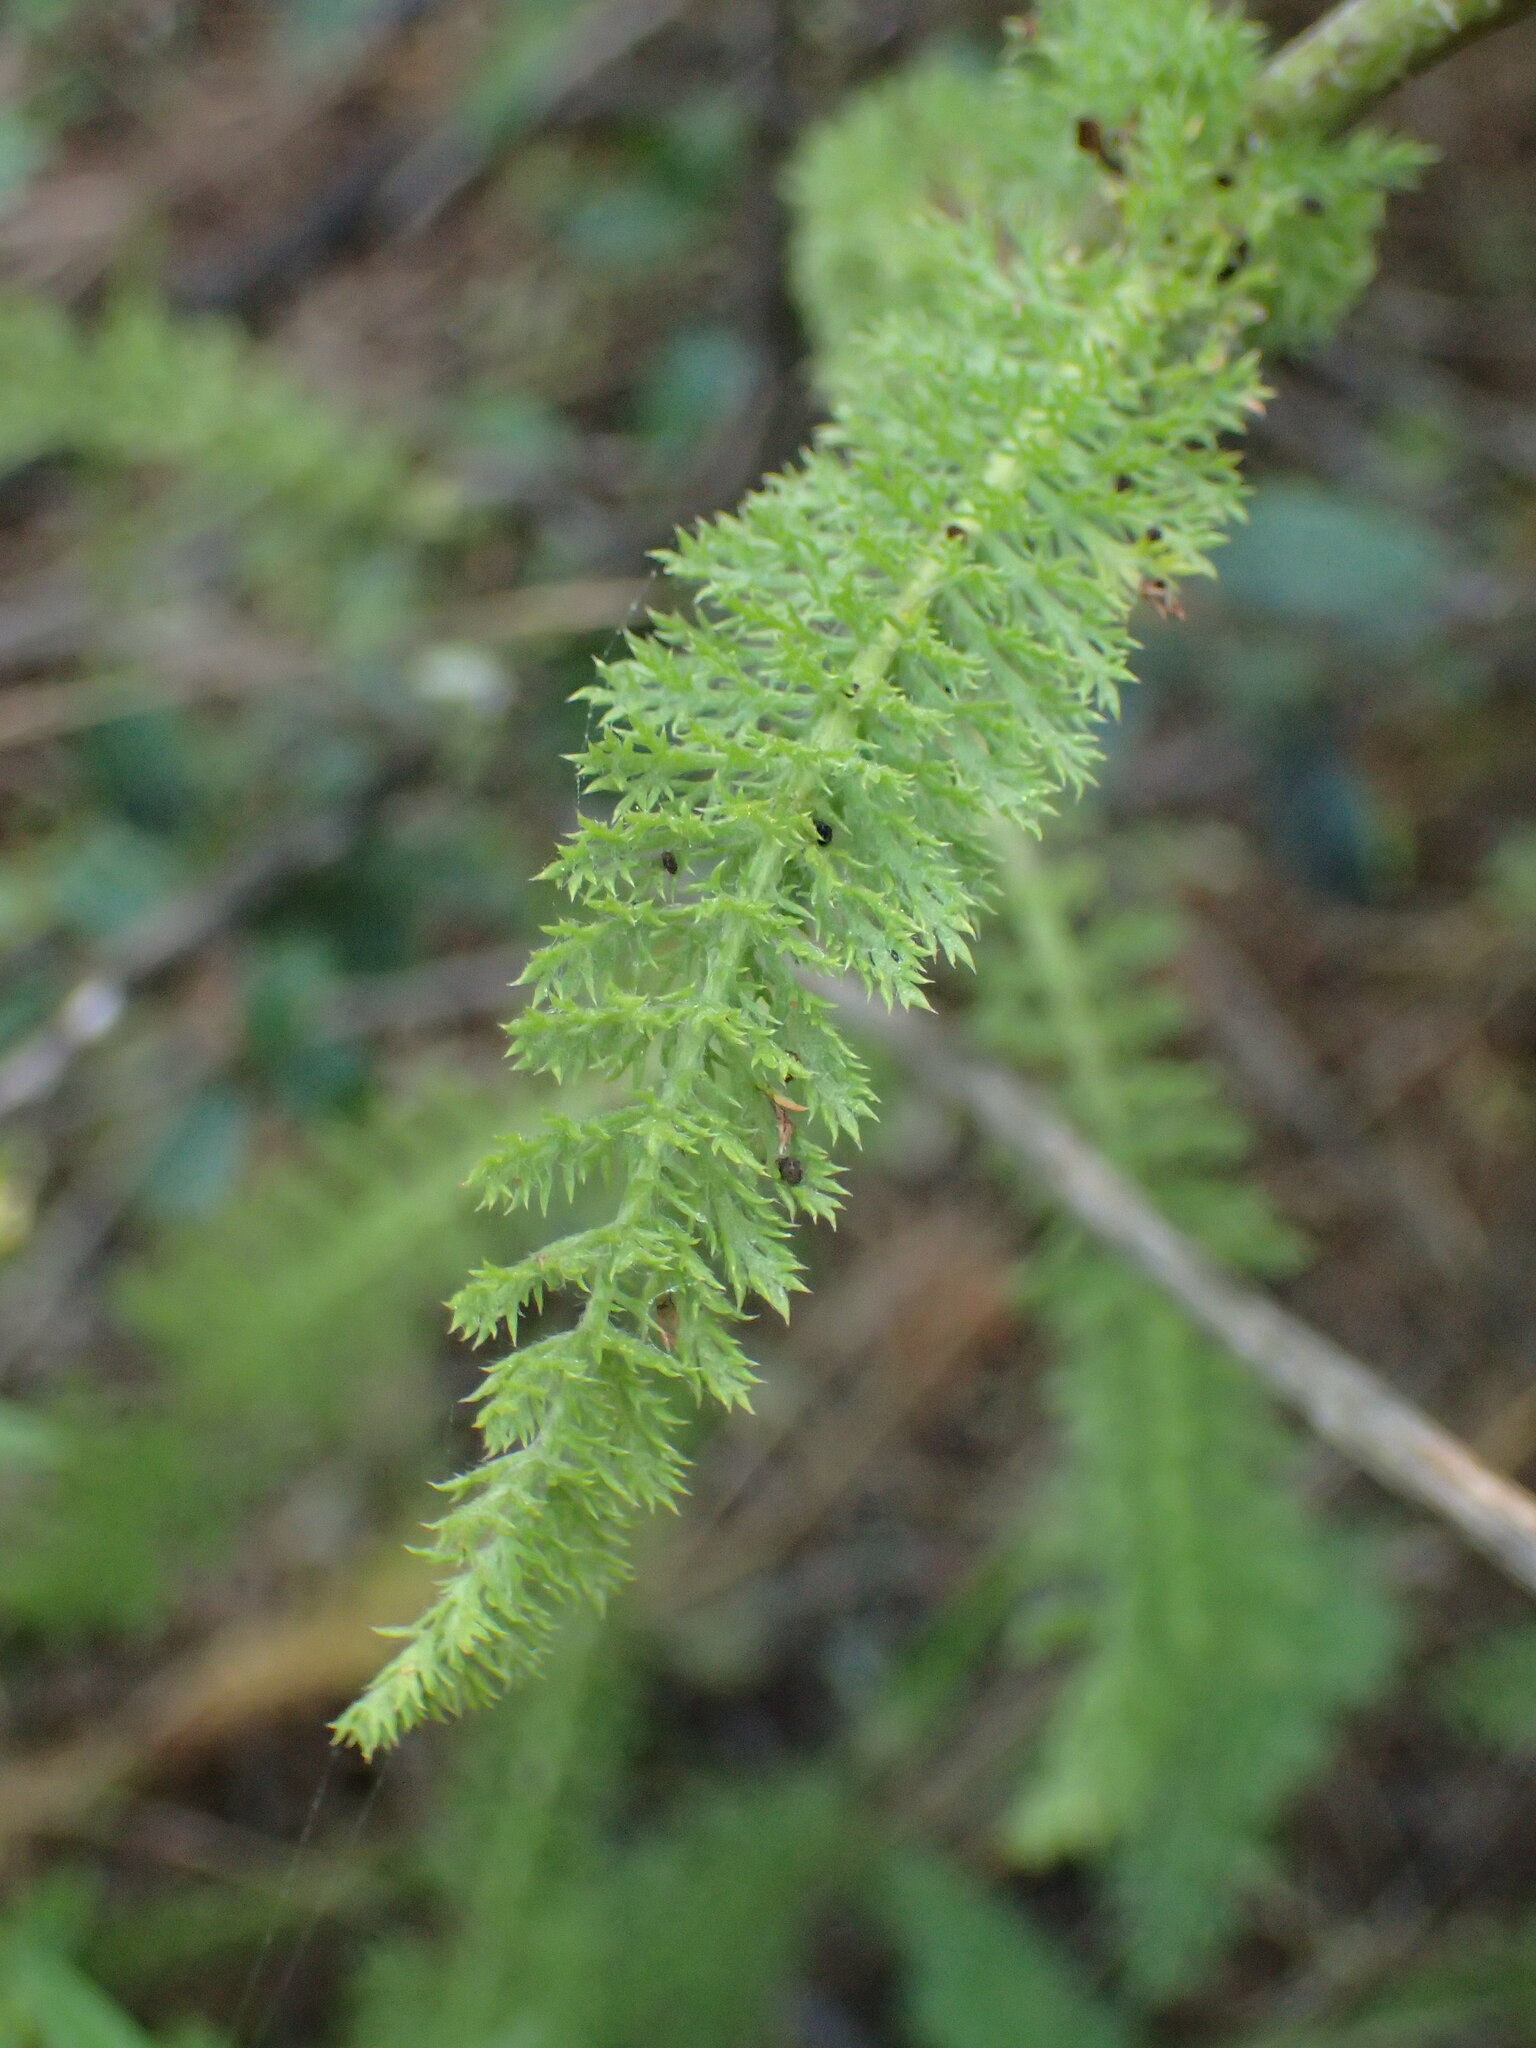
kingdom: Plantae
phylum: Tracheophyta
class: Magnoliopsida
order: Asterales
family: Asteraceae
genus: Achillea
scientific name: Achillea millefolium
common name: Yarrow
